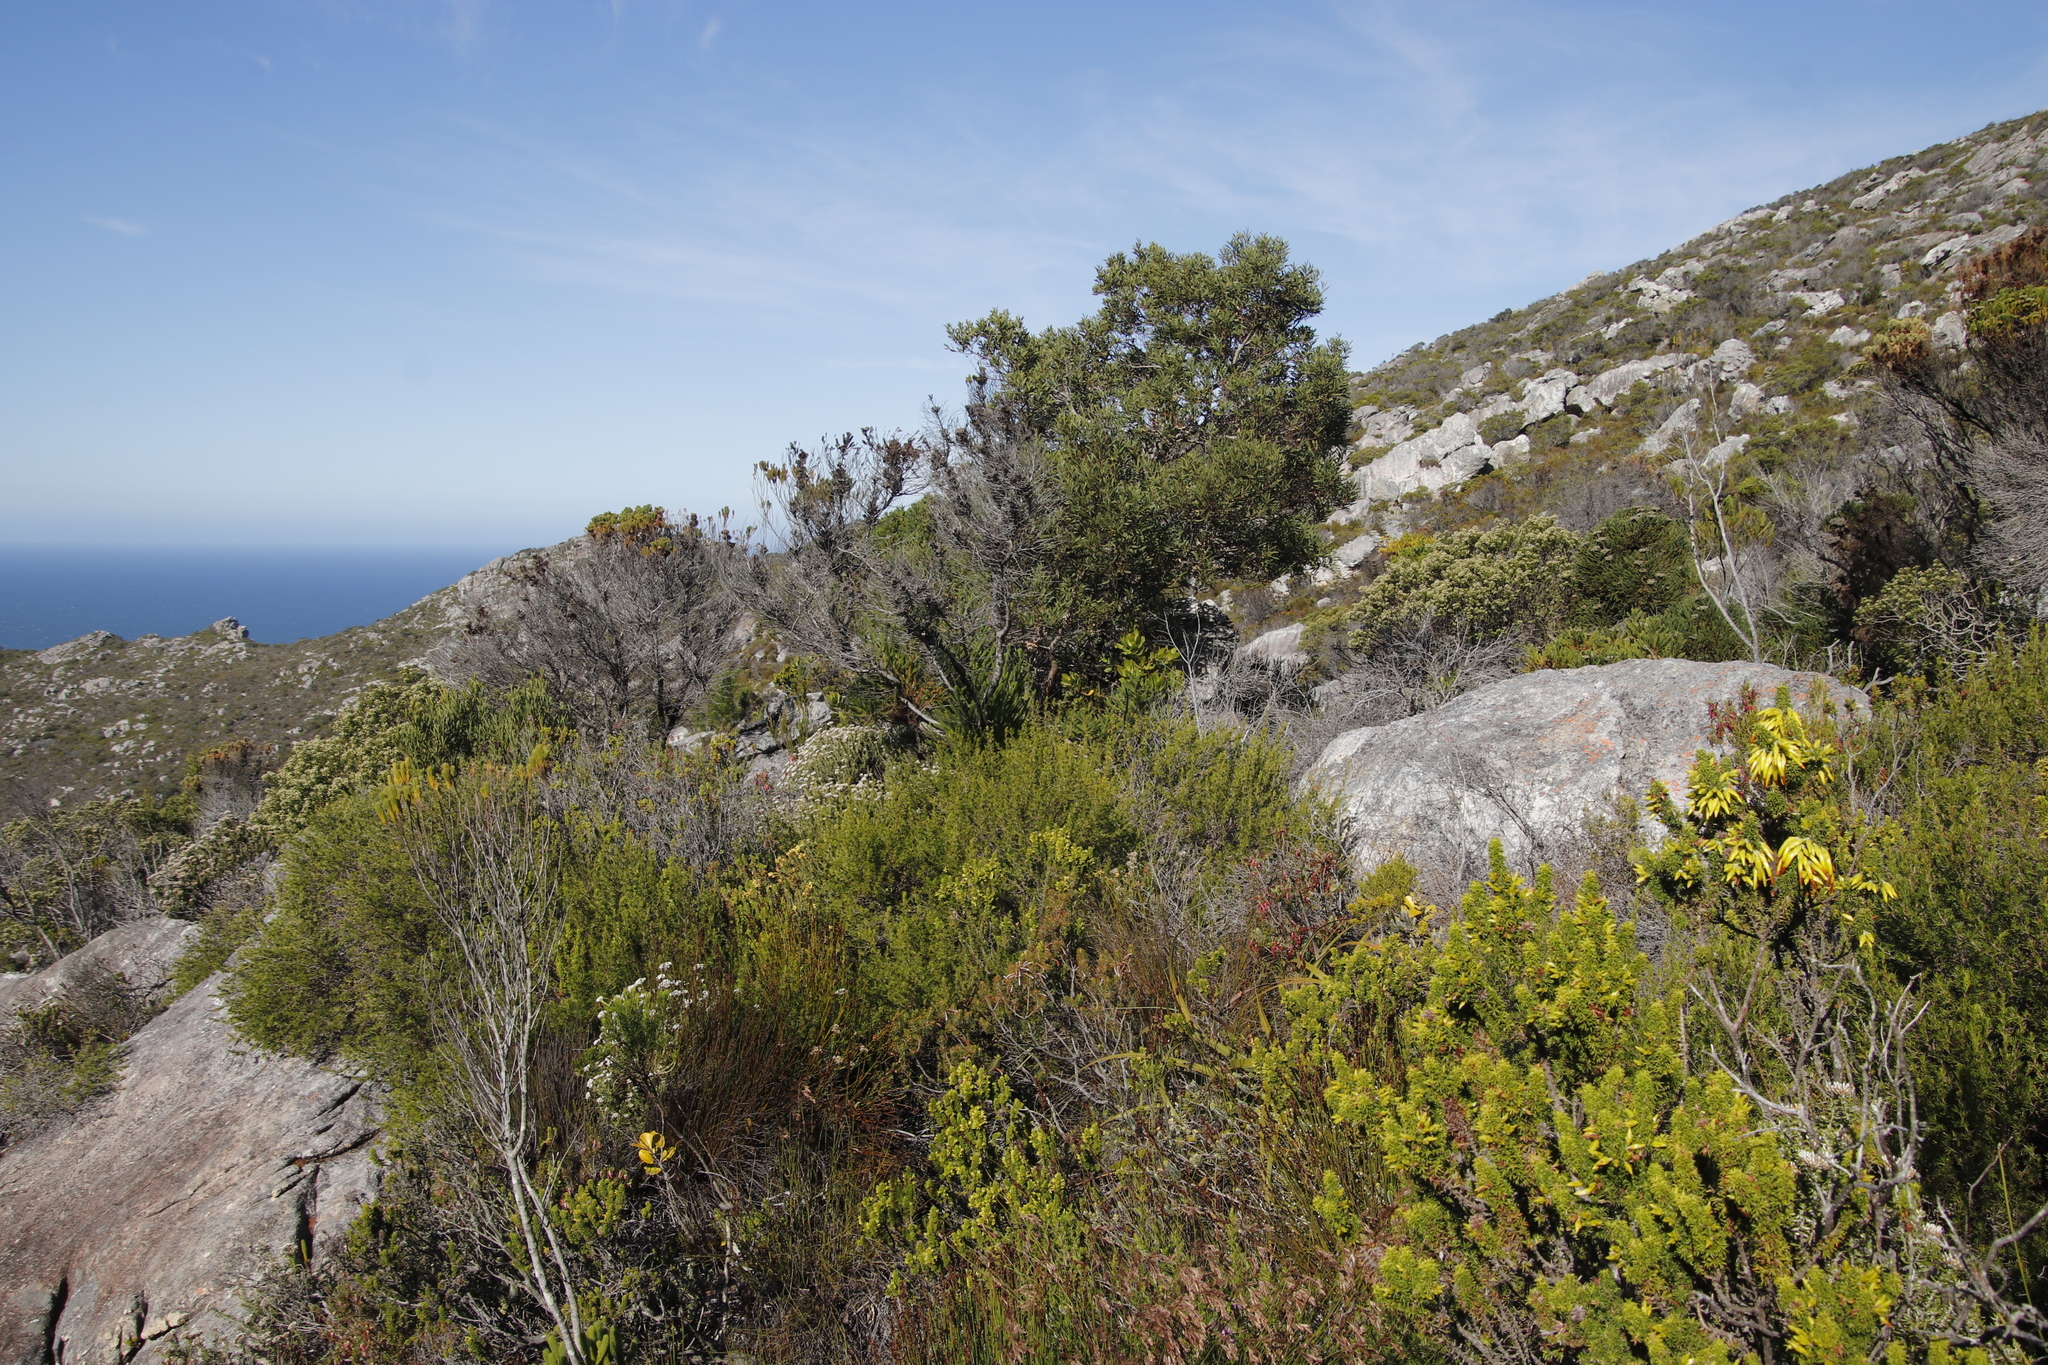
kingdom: Plantae
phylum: Tracheophyta
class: Magnoliopsida
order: Fabales
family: Fabaceae
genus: Acacia
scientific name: Acacia cyclops
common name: Coastal wattle
